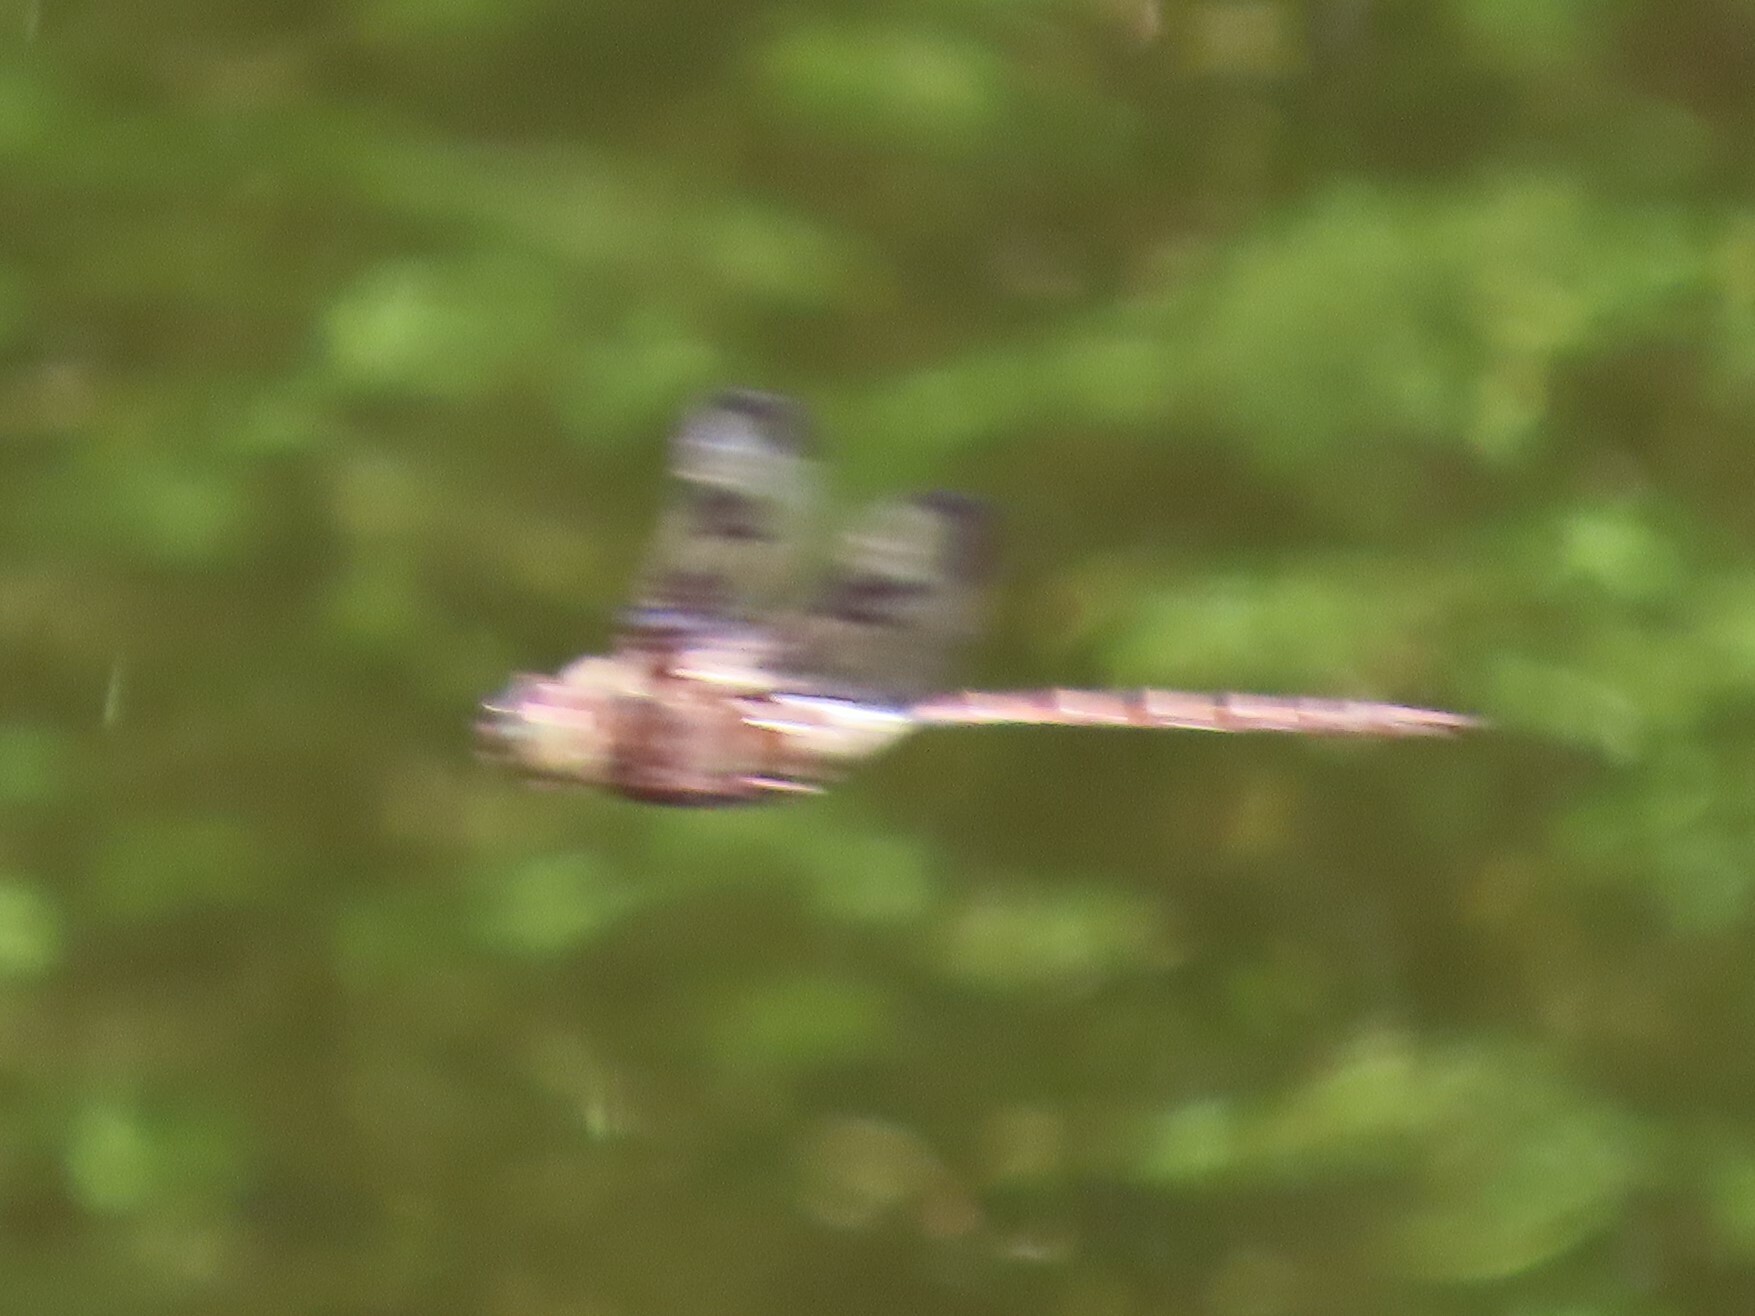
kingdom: Animalia
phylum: Arthropoda
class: Insecta
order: Odonata
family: Corduliidae
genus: Epitheca
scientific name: Epitheca princeps
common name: Prince baskettail
